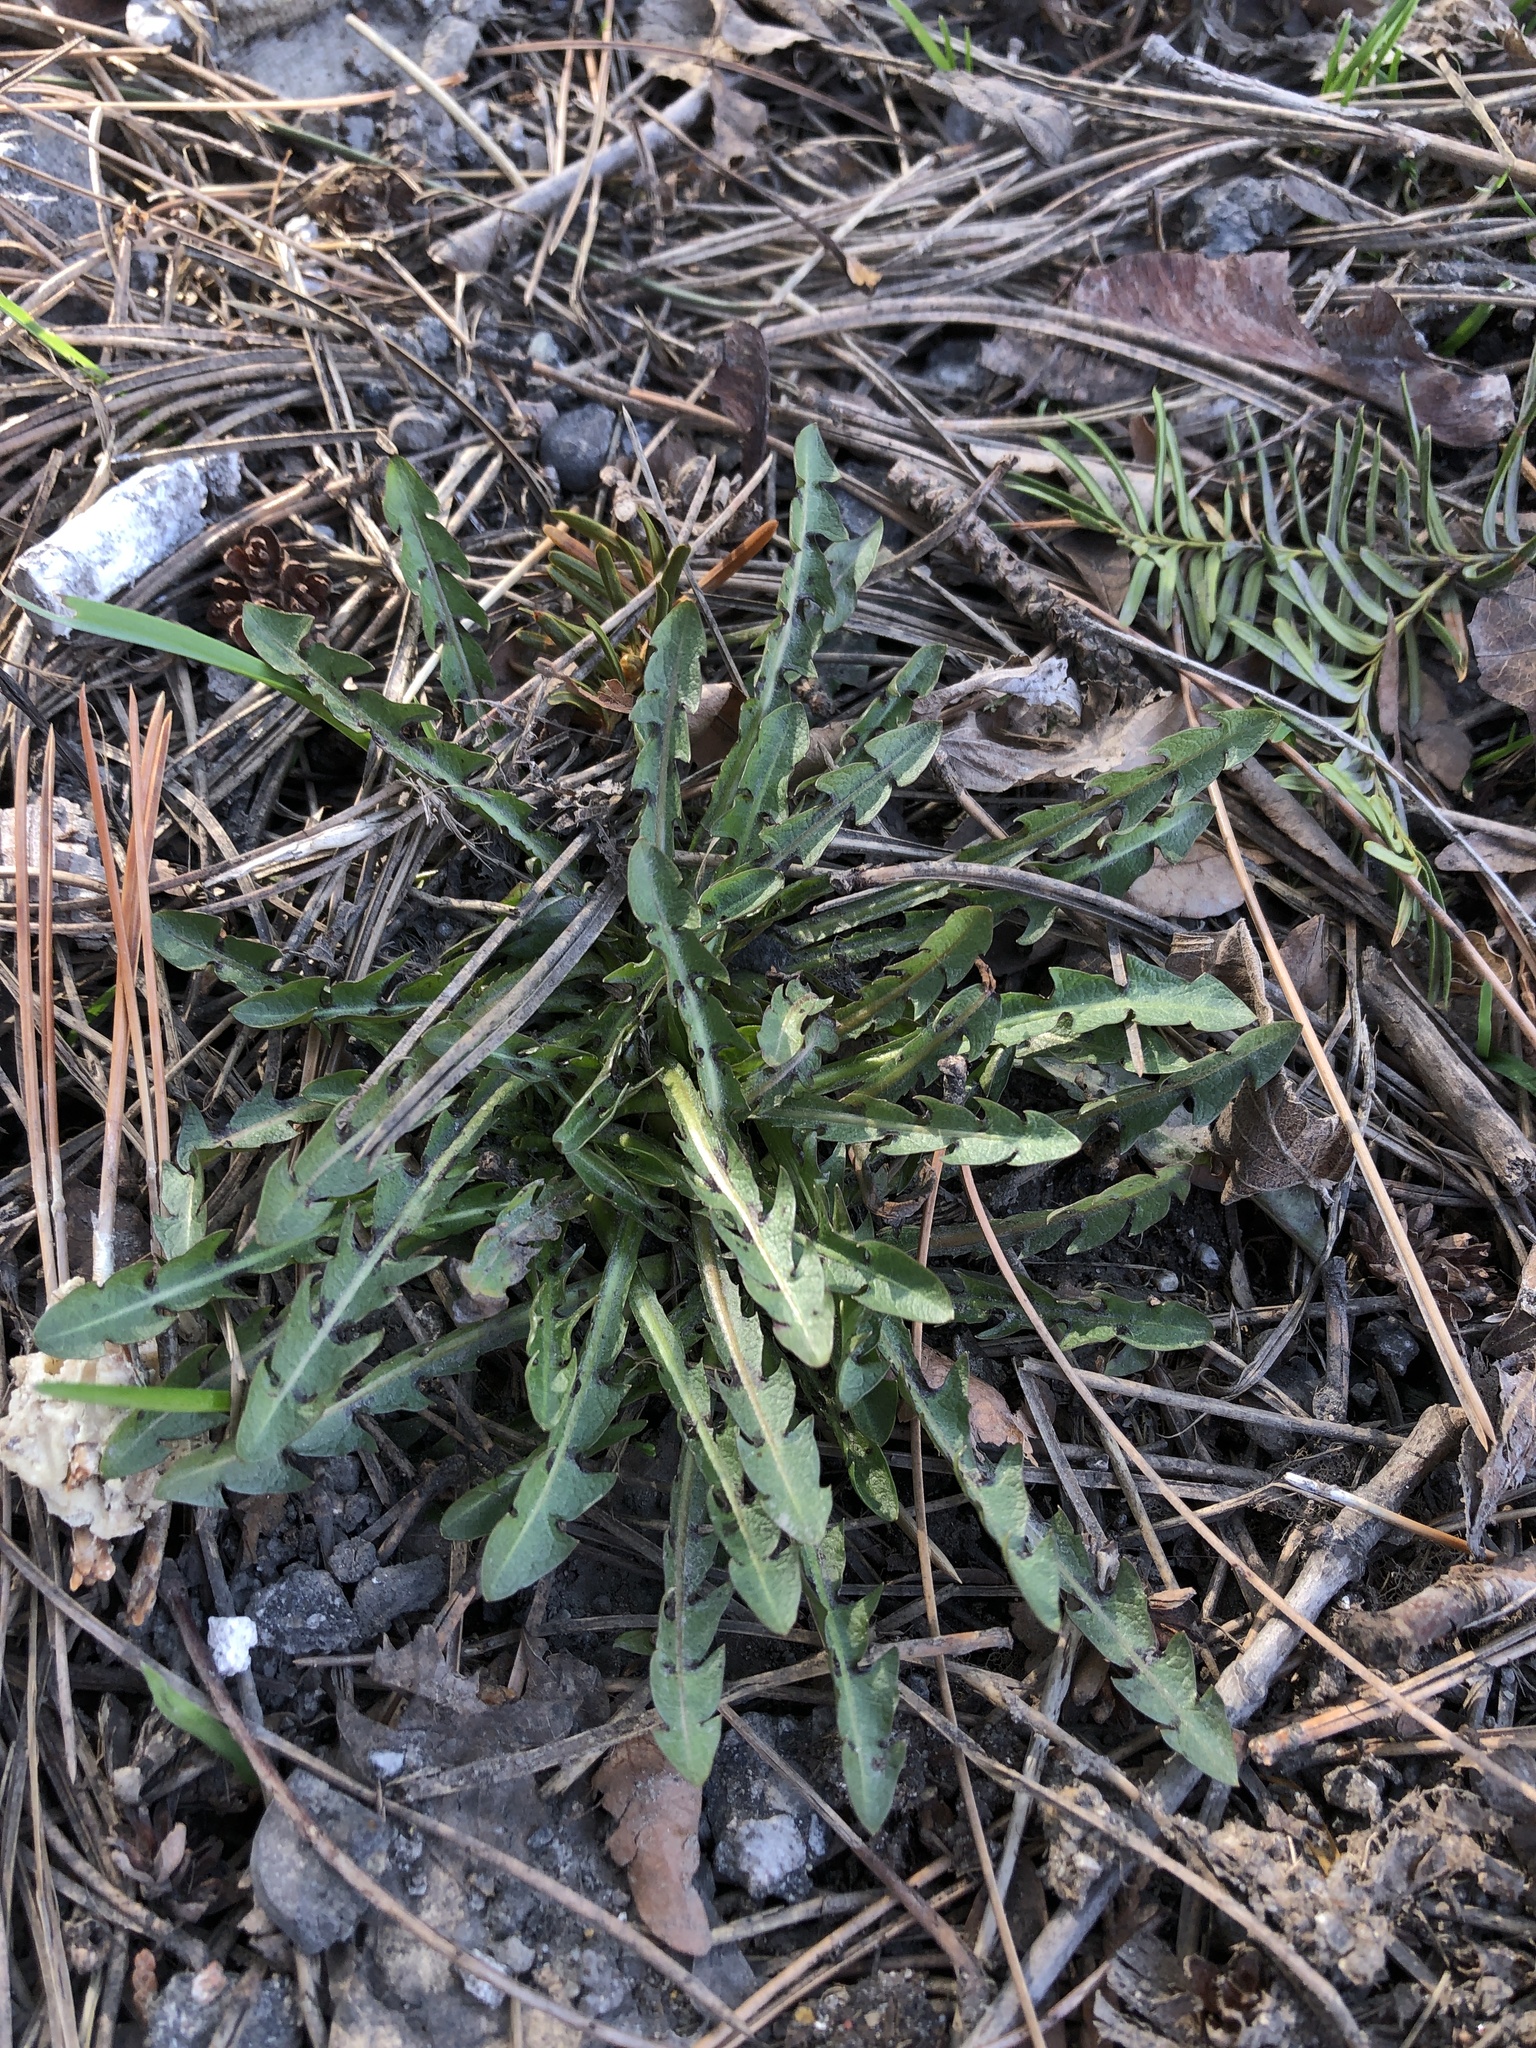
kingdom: Plantae
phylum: Tracheophyta
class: Magnoliopsida
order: Asterales
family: Asteraceae
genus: Taraxacum
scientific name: Taraxacum officinale
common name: Common dandelion
